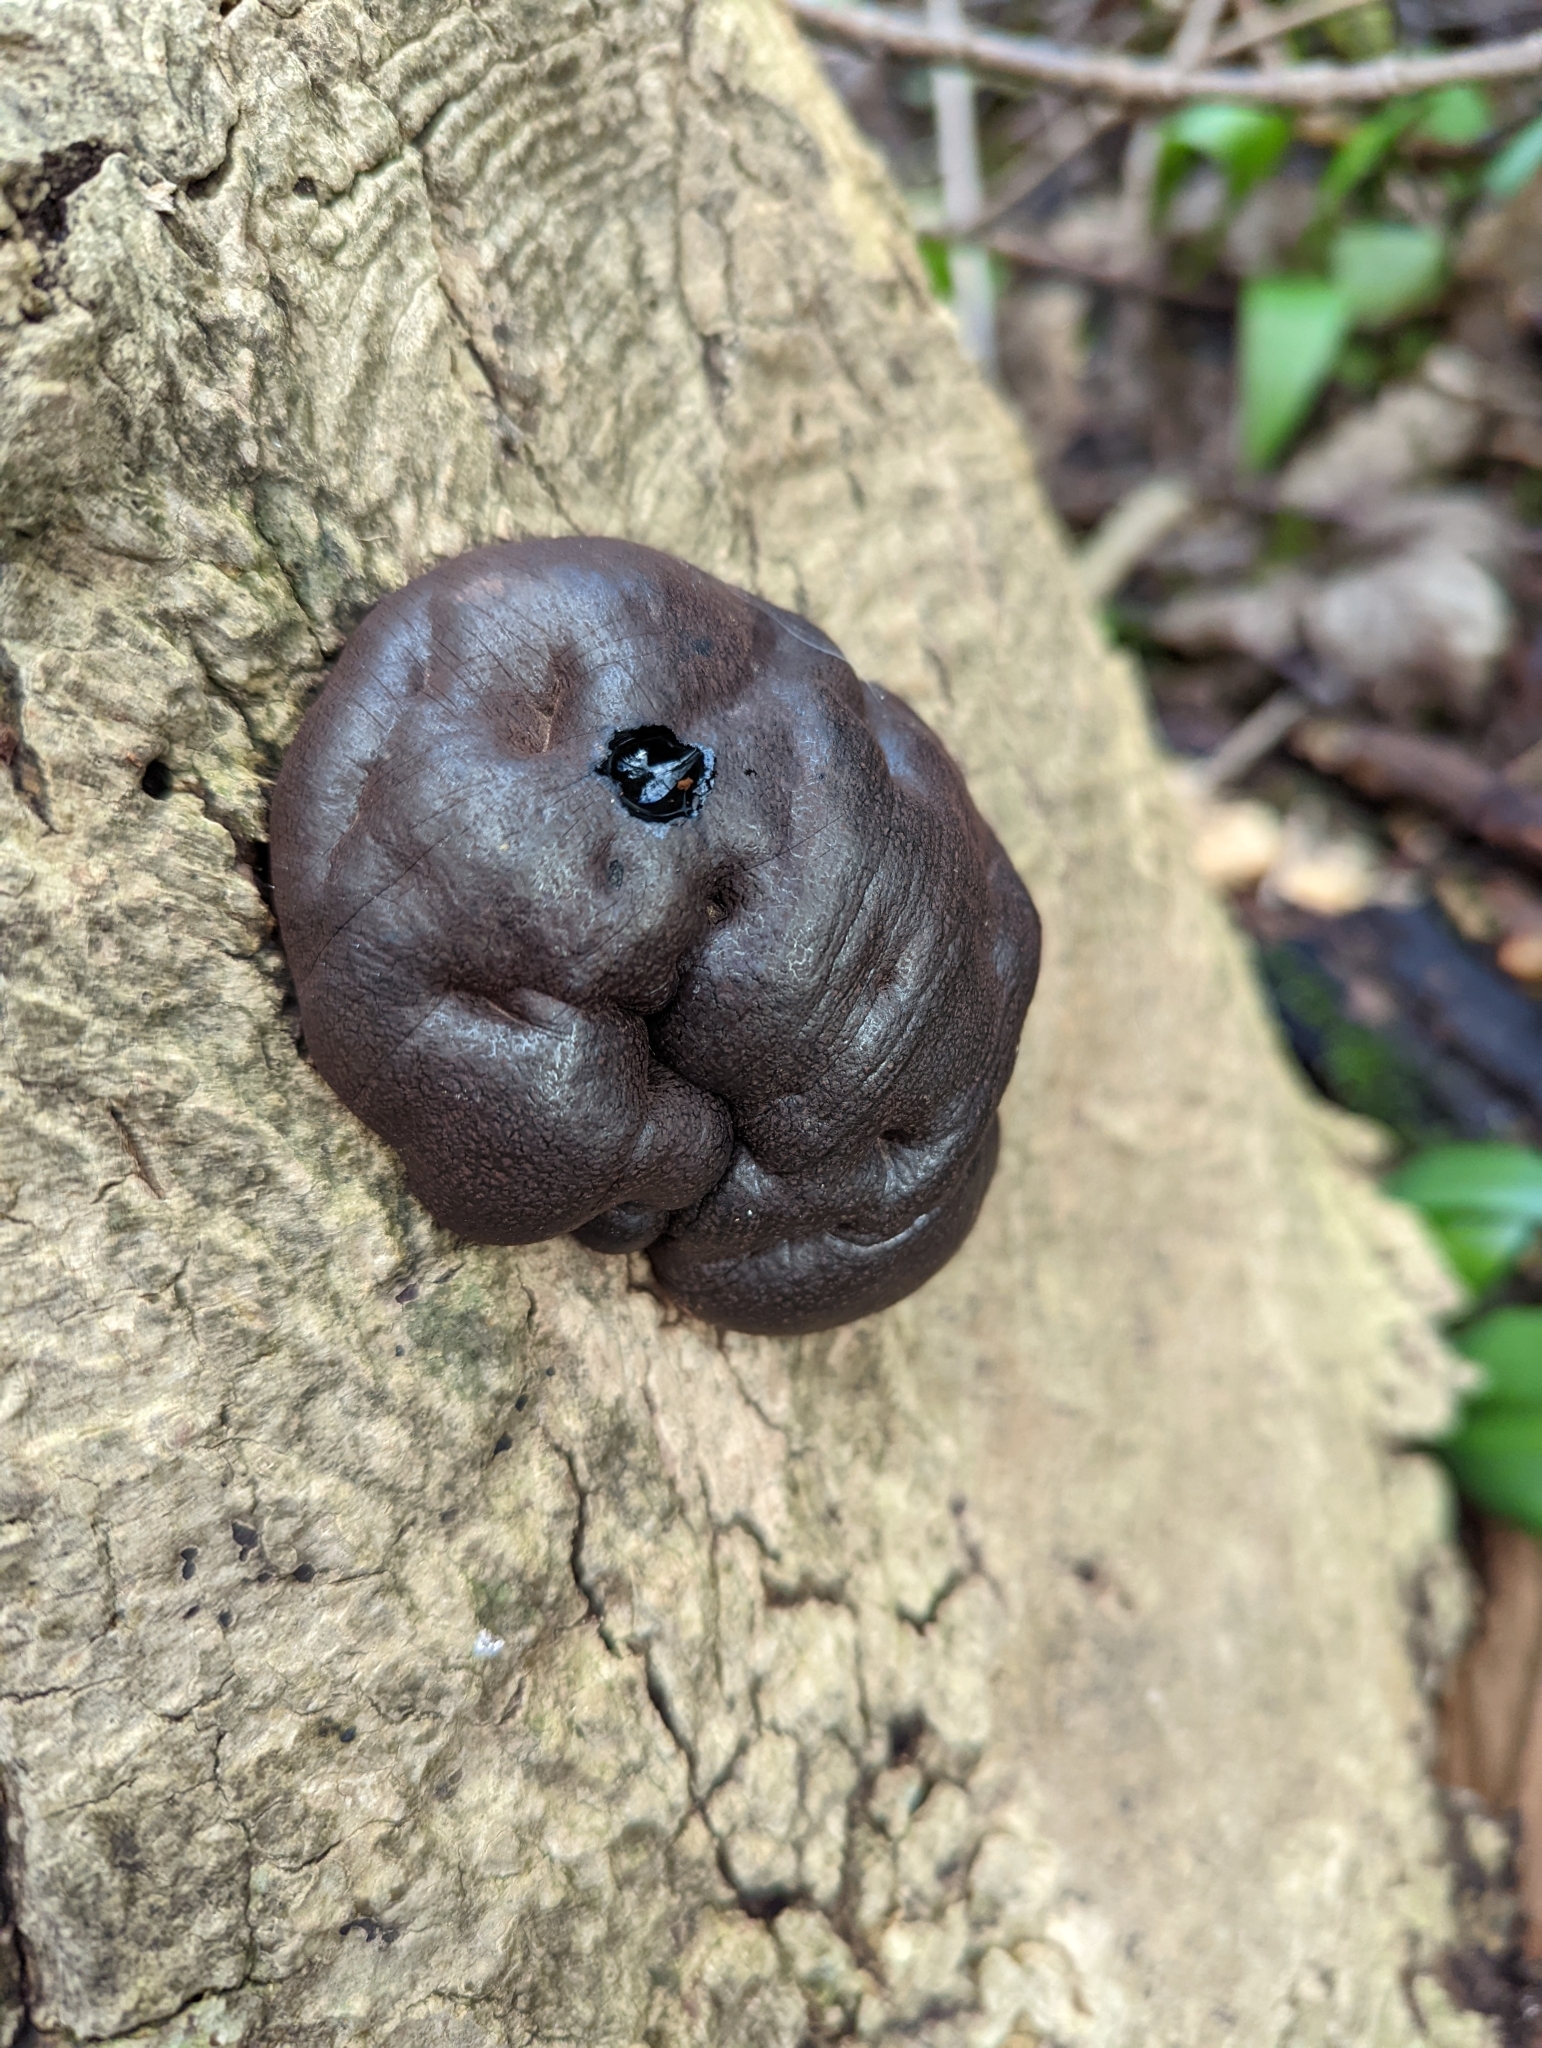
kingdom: Fungi
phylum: Ascomycota
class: Sordariomycetes
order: Xylariales
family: Hypoxylaceae
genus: Daldinia
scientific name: Daldinia concentrica
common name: Cramp balls
